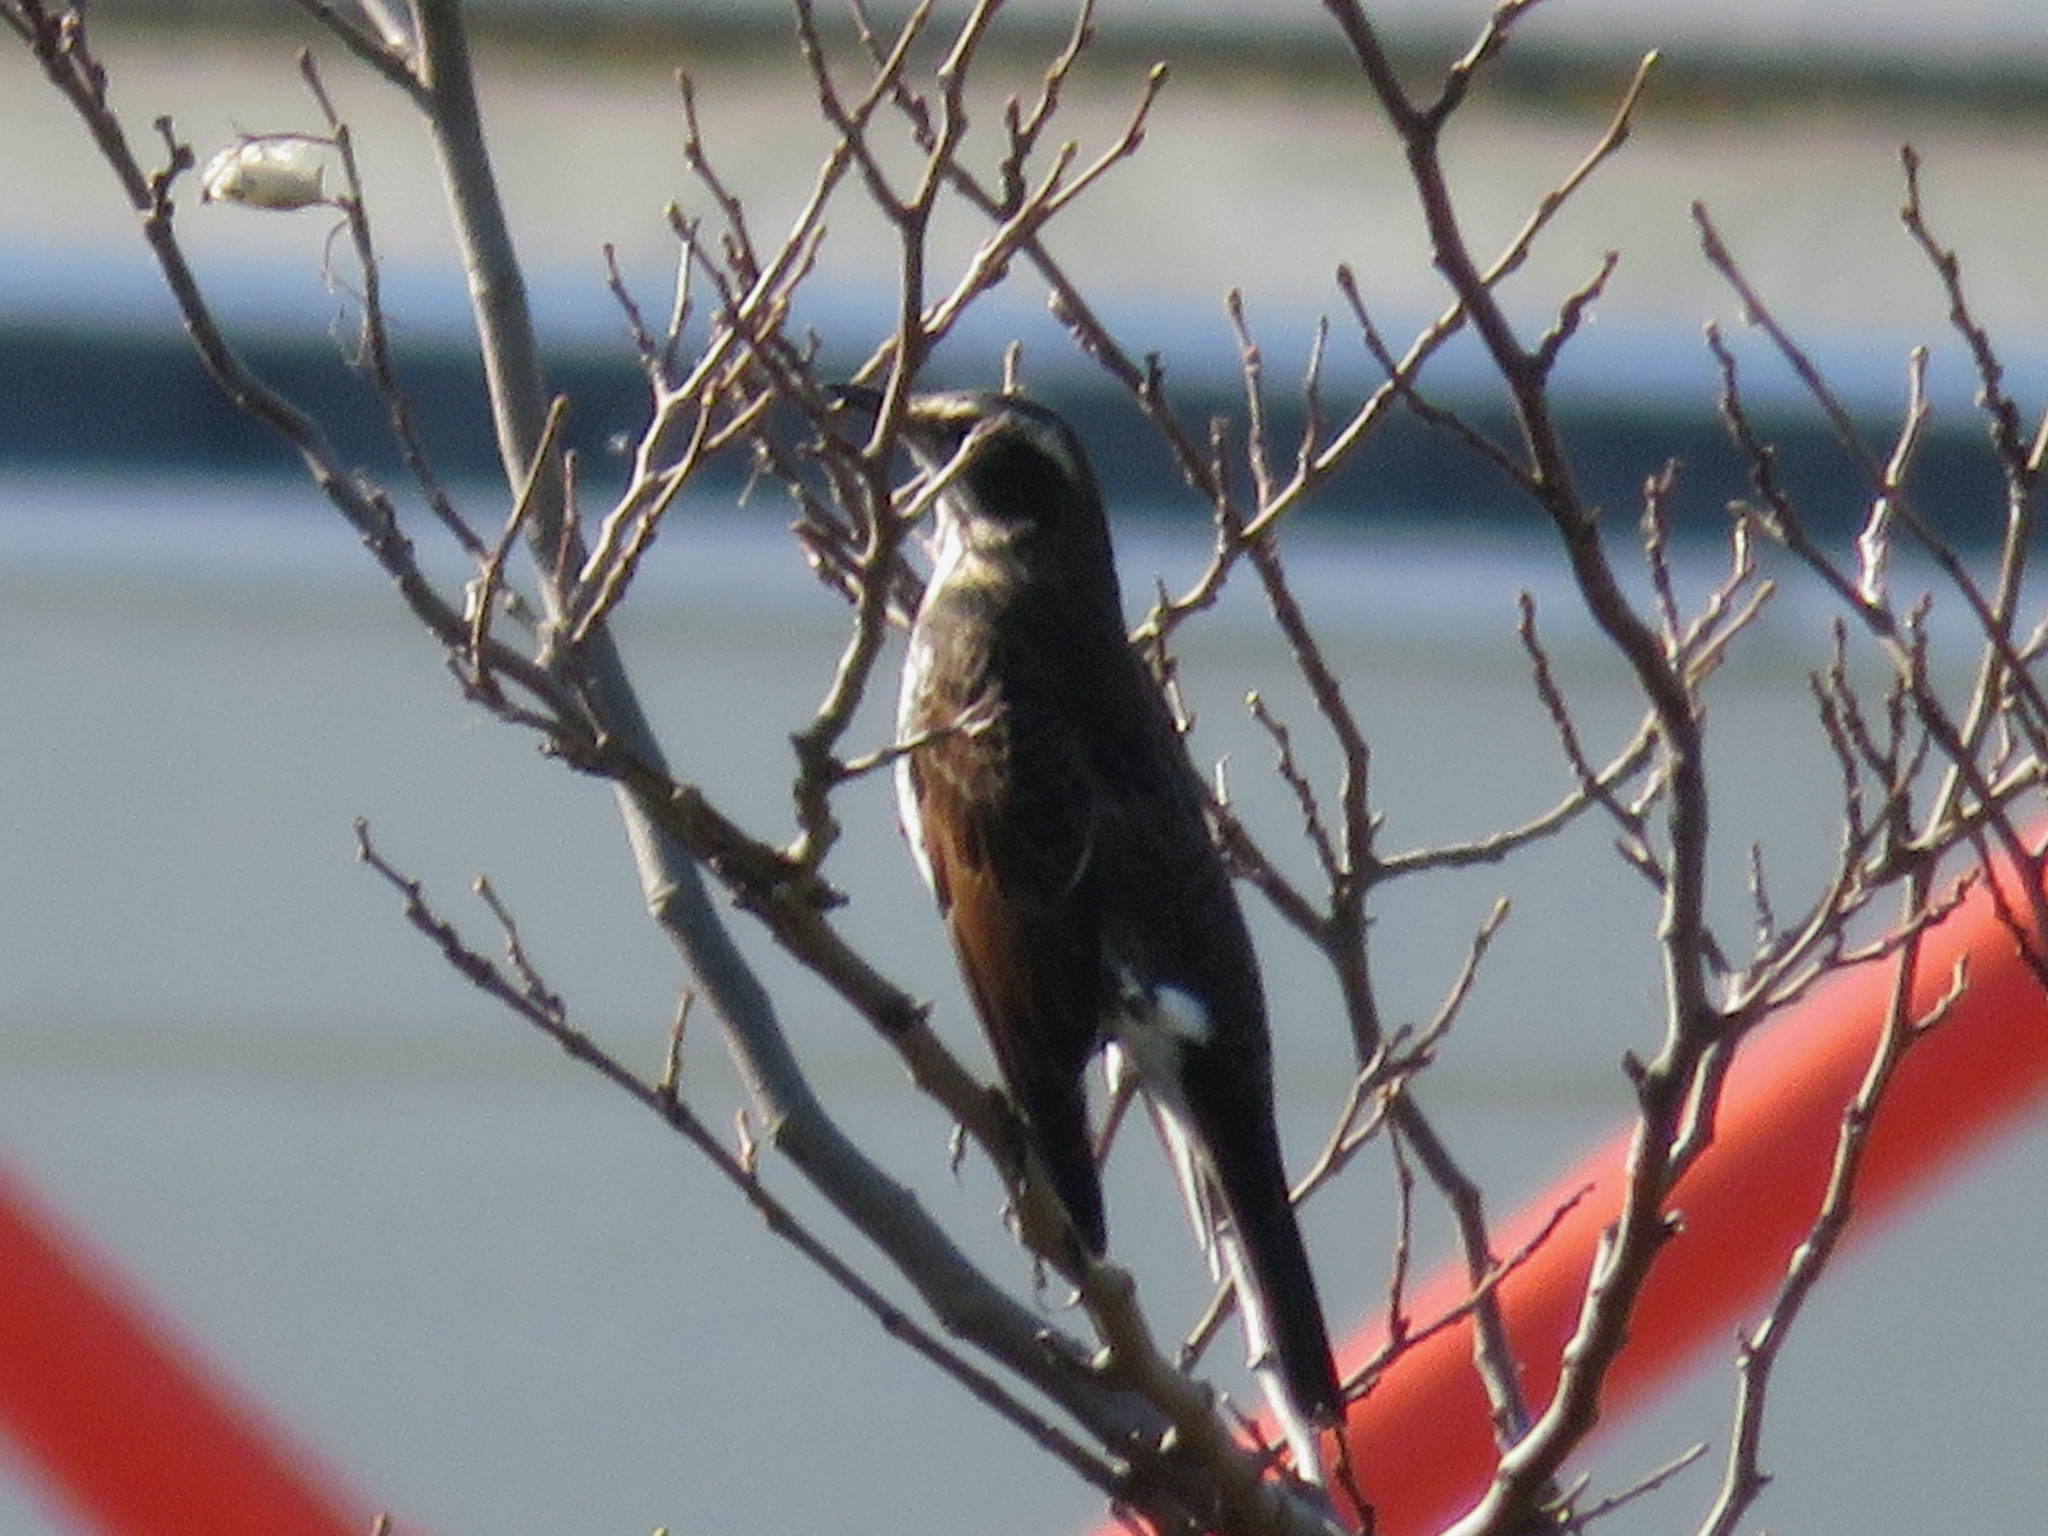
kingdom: Animalia
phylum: Chordata
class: Aves
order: Passeriformes
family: Turdidae
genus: Turdus
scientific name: Turdus eunomus
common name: Dusky thrush
